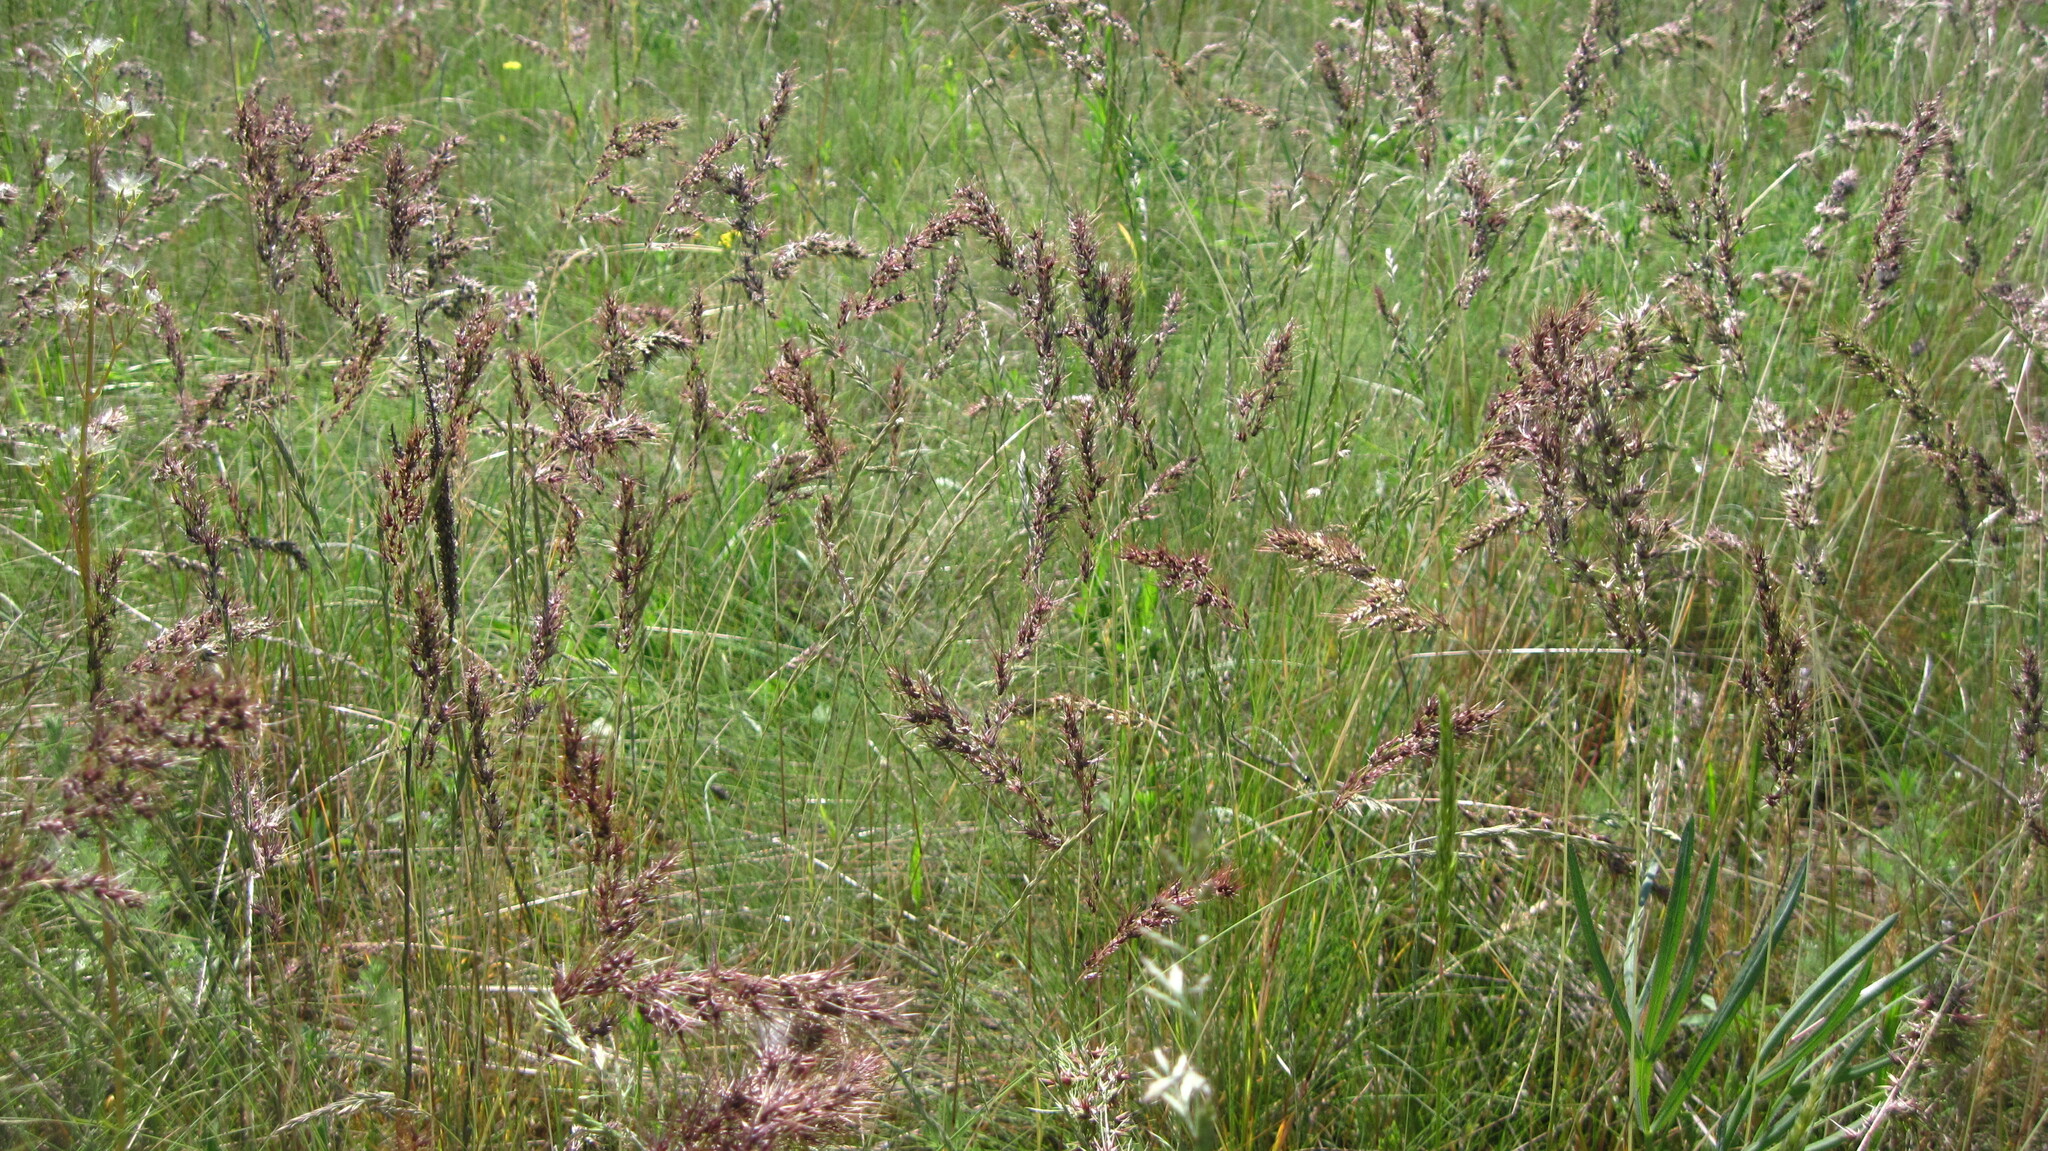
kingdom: Plantae
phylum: Tracheophyta
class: Liliopsida
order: Poales
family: Poaceae
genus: Poa
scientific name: Poa bulbosa
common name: Bulbous bluegrass
